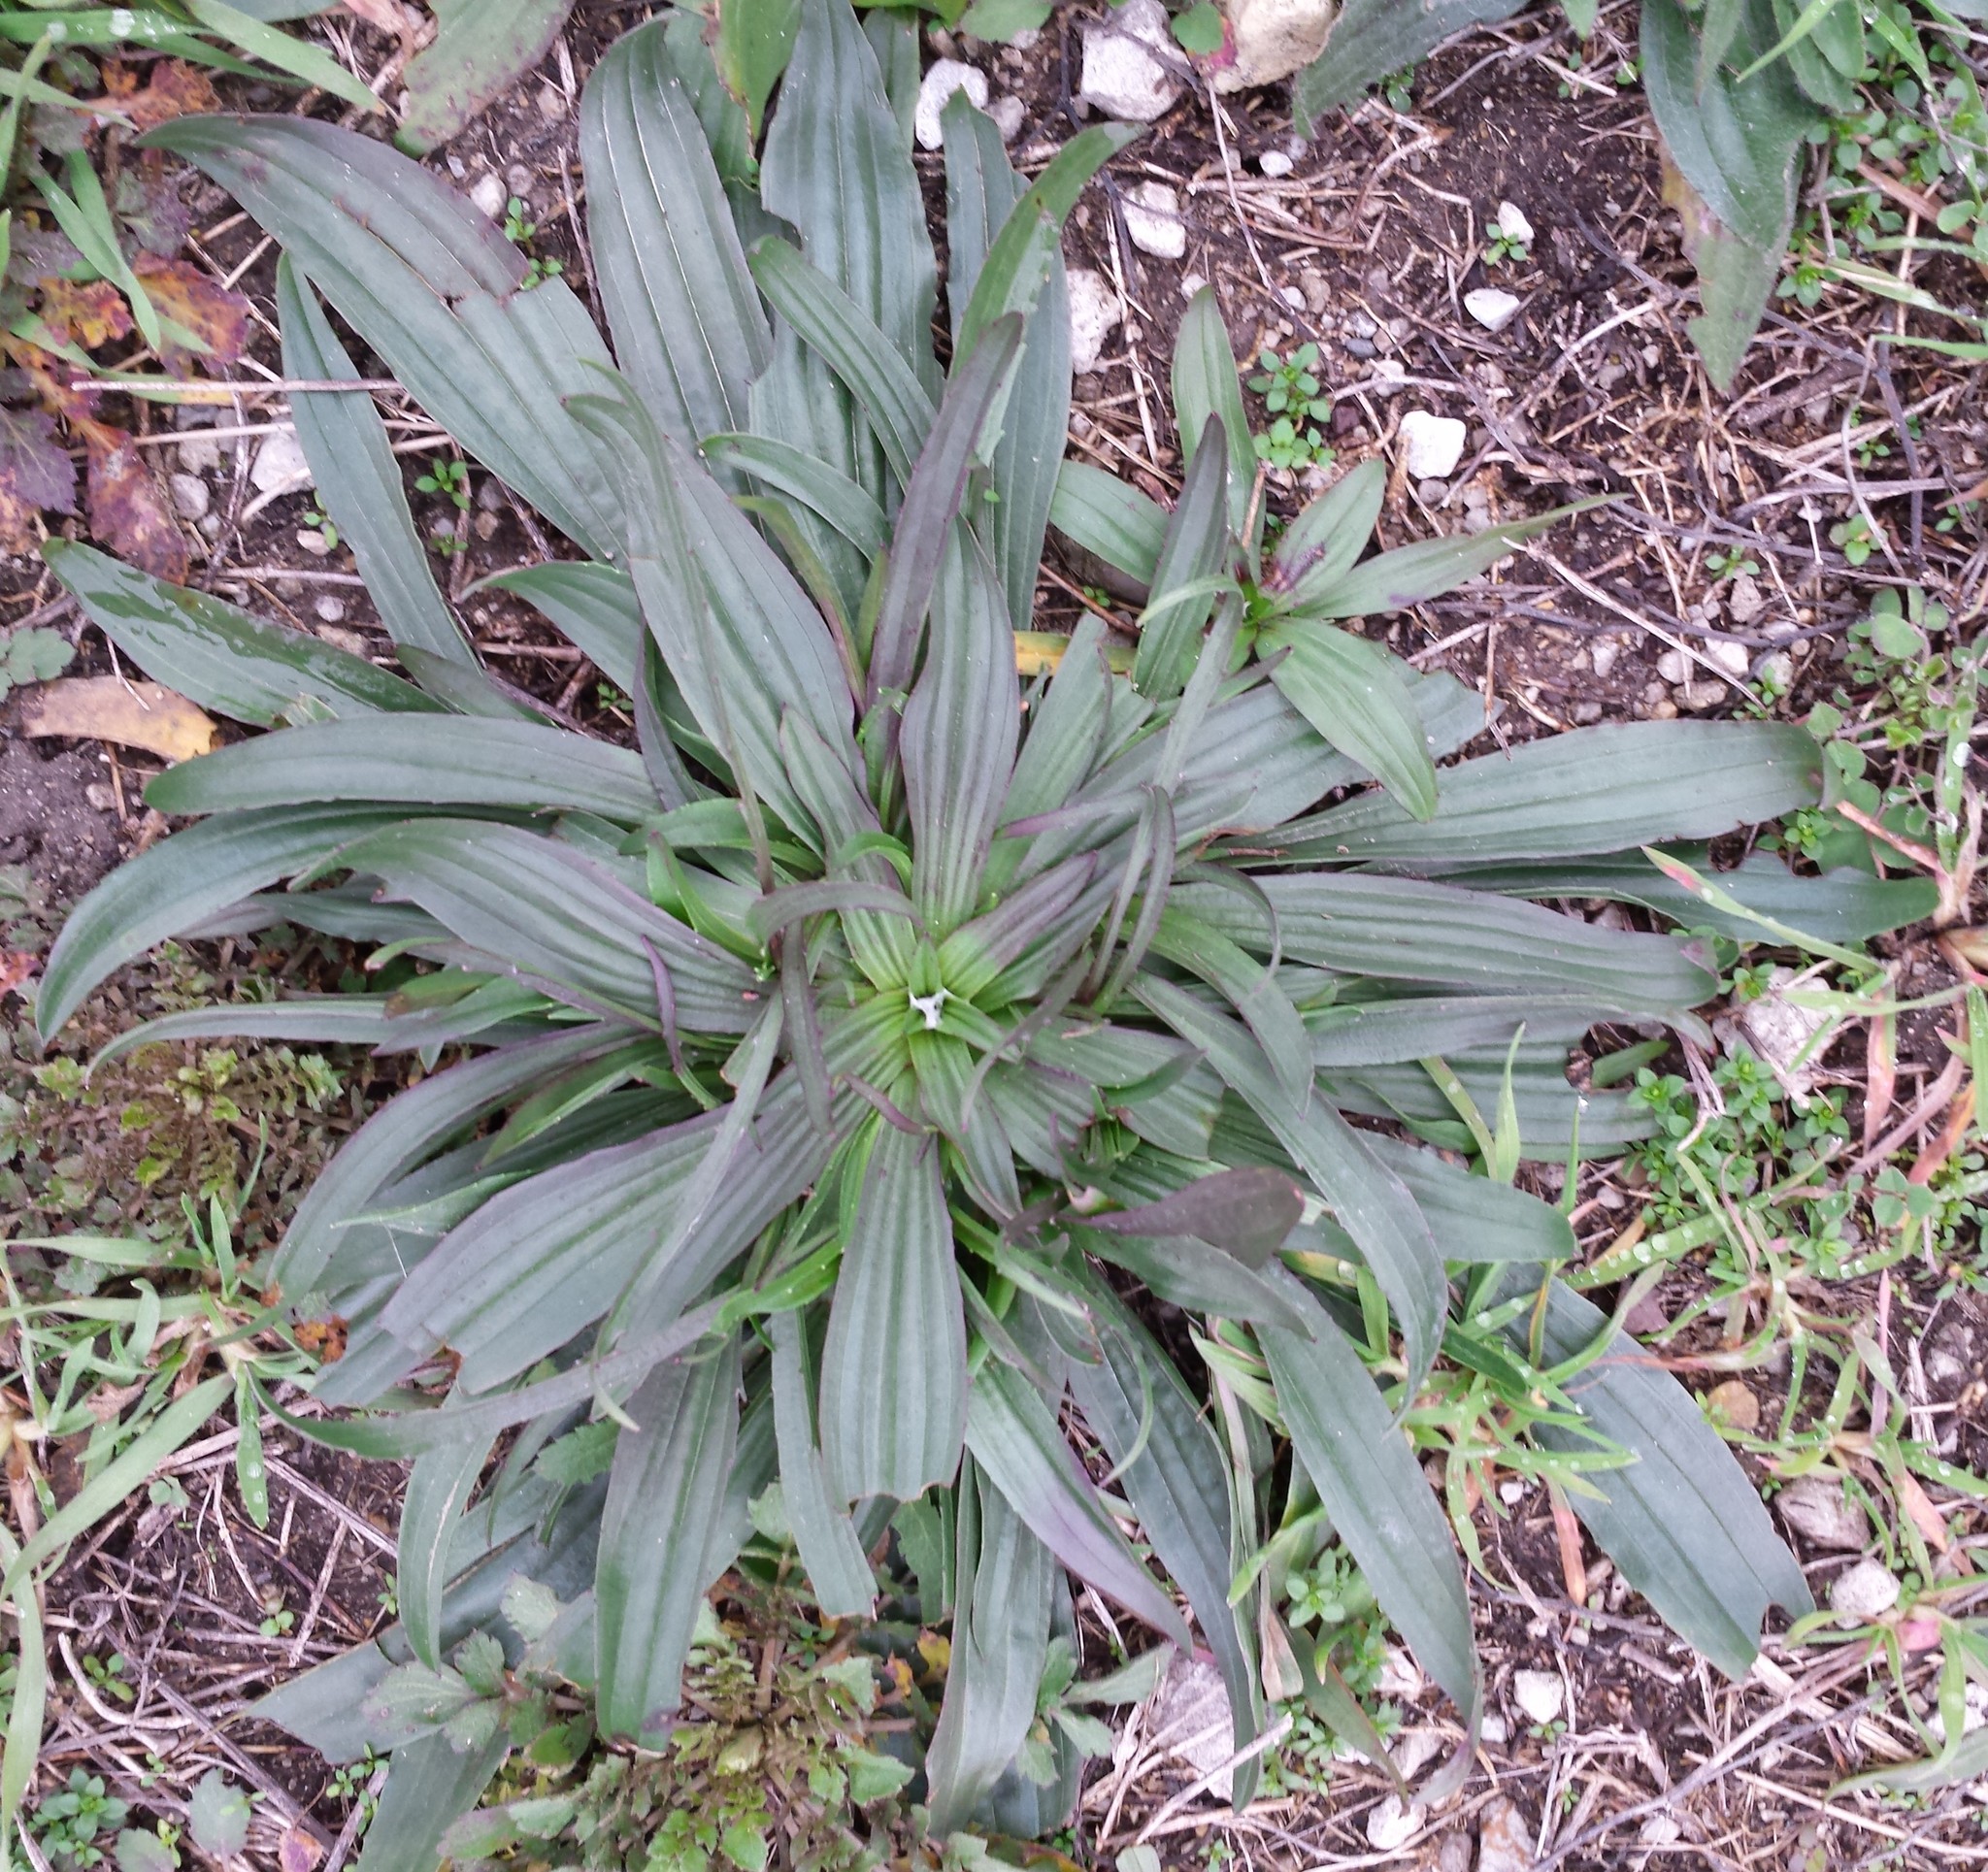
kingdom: Plantae
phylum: Tracheophyta
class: Magnoliopsida
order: Lamiales
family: Plantaginaceae
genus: Plantago
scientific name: Plantago lanceolata
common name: Ribwort plantain
